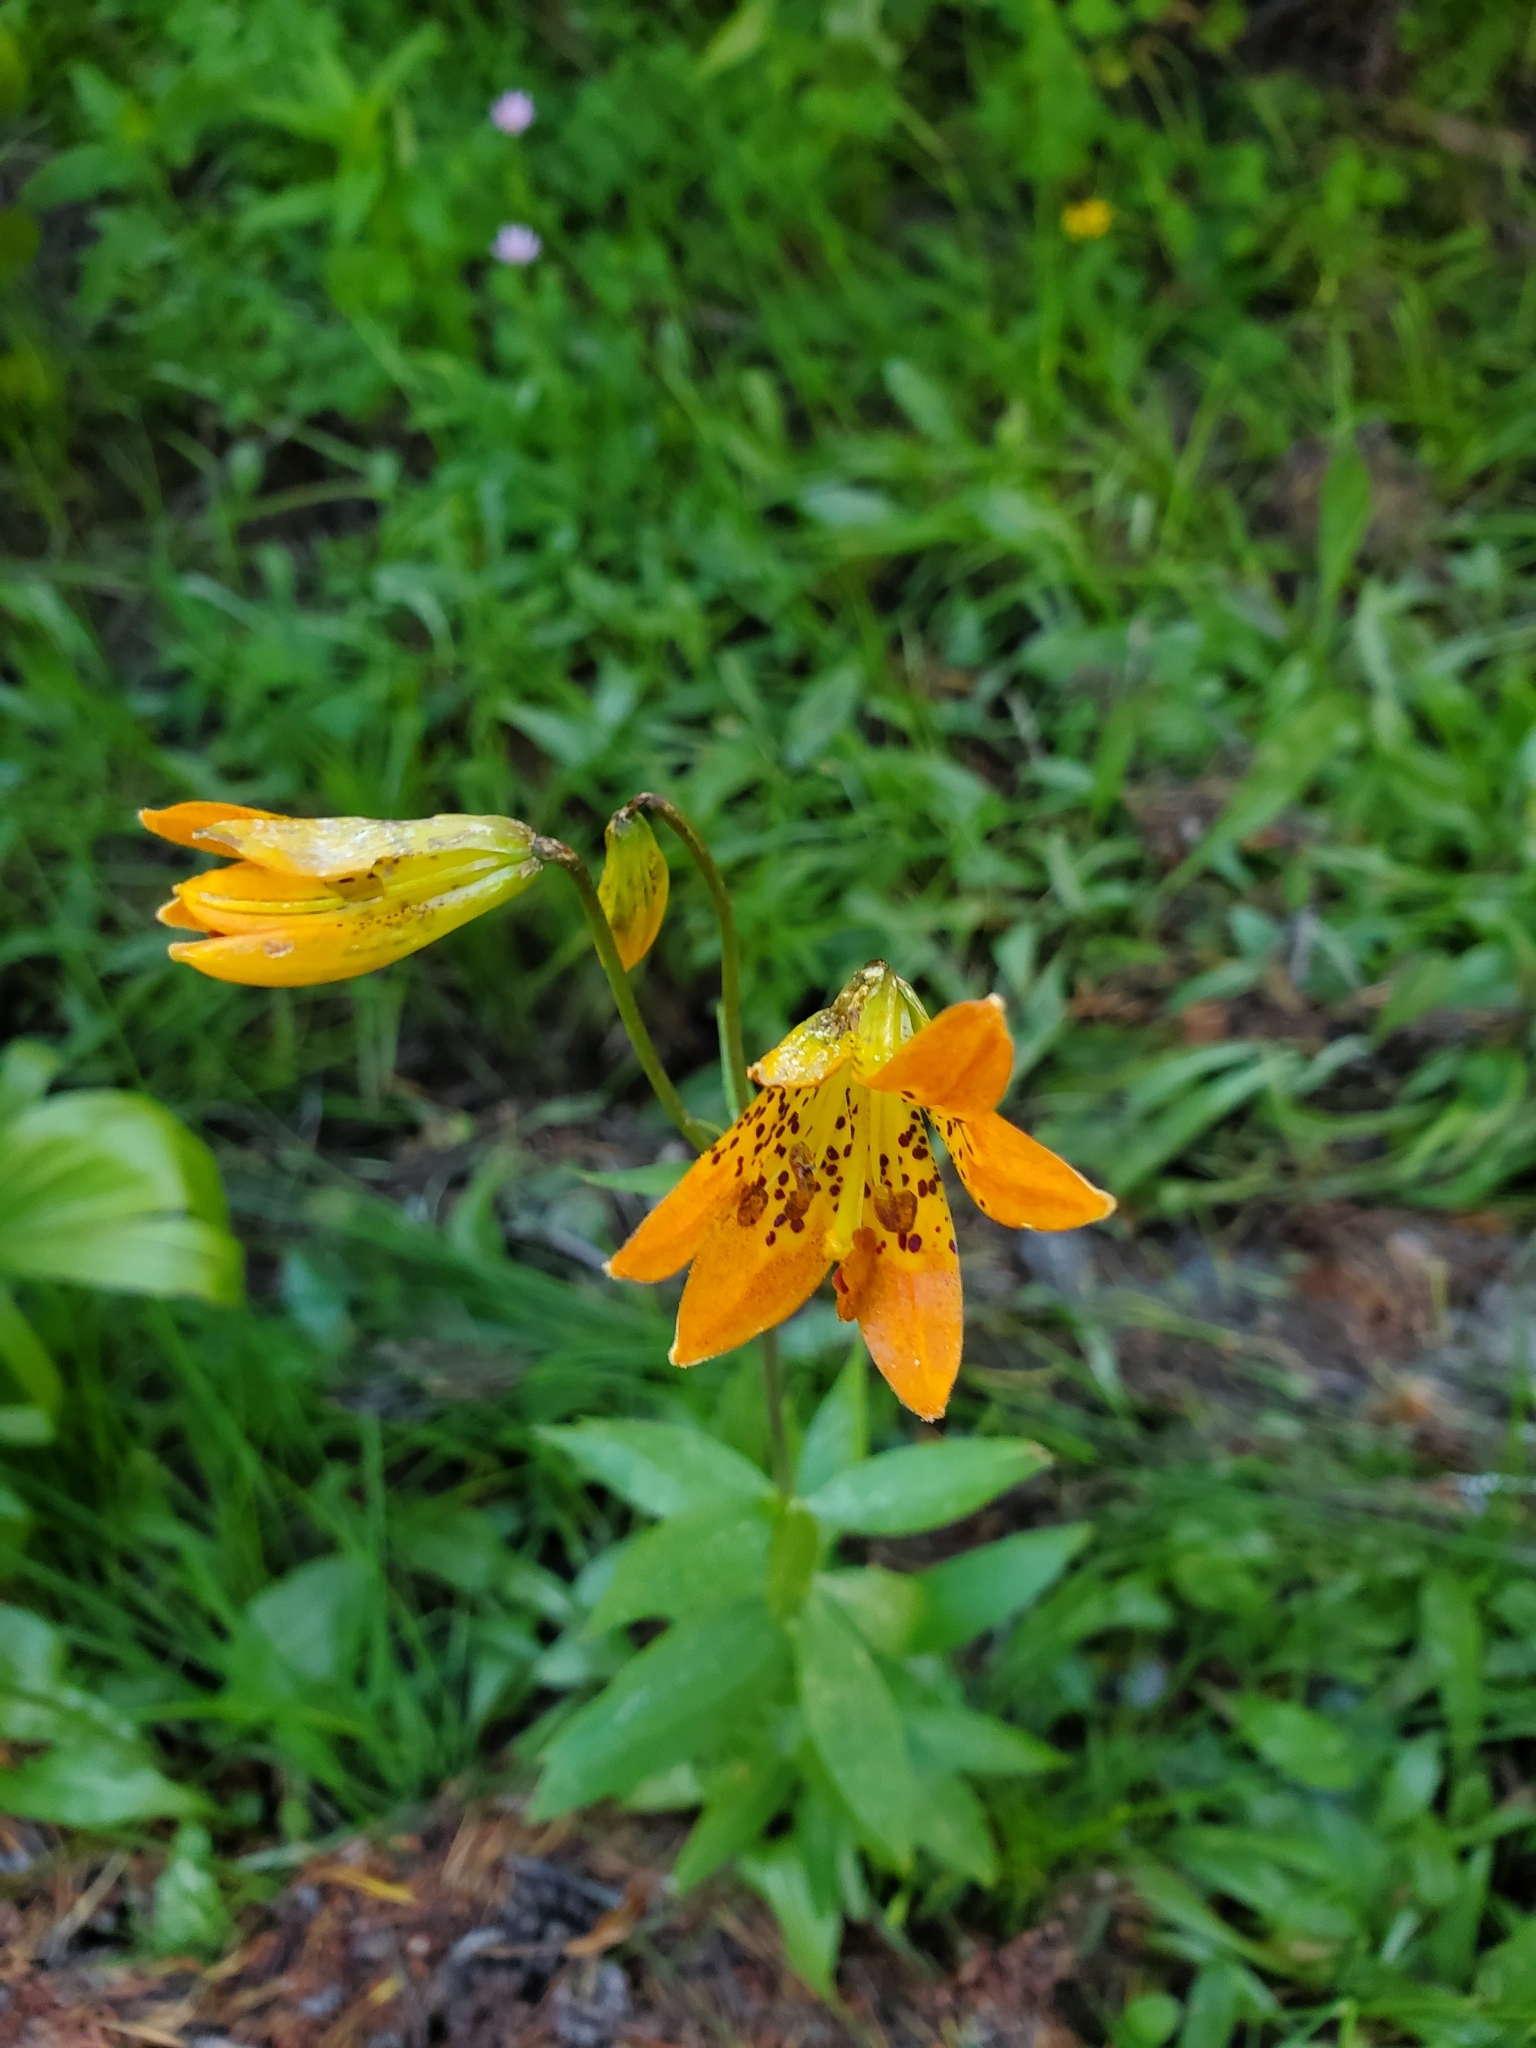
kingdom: Plantae
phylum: Tracheophyta
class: Liliopsida
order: Liliales
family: Liliaceae
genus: Lilium
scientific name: Lilium parvum
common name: Alpine lily
